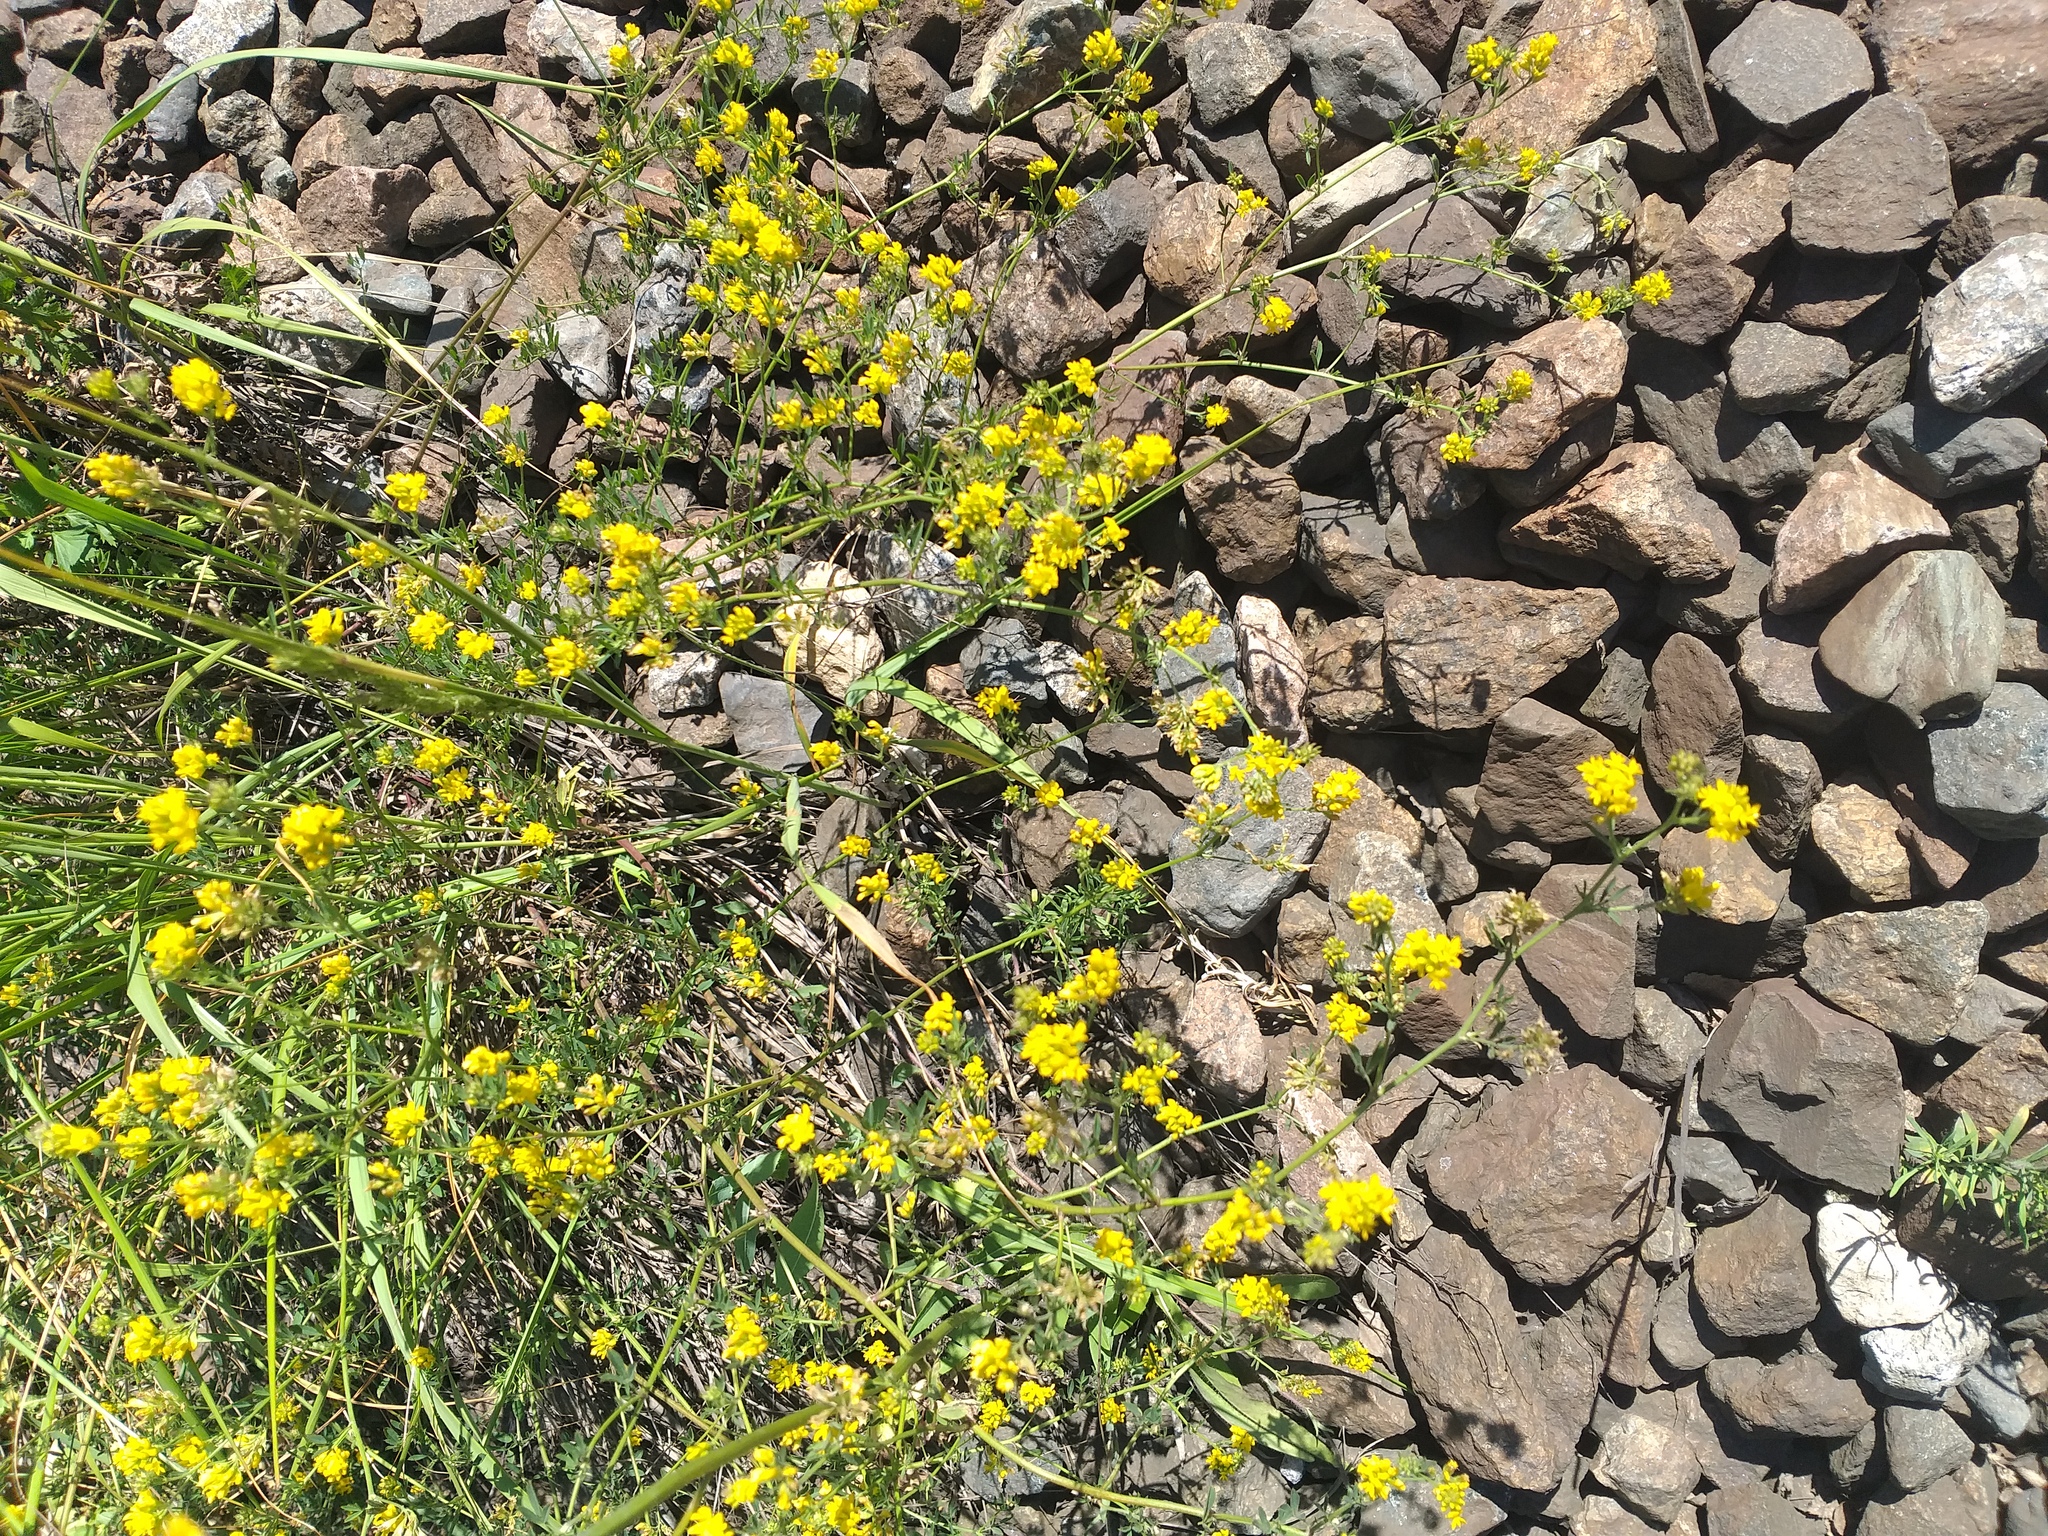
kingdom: Plantae
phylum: Tracheophyta
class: Magnoliopsida
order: Fabales
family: Fabaceae
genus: Medicago
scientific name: Medicago falcata
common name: Sickle medick
